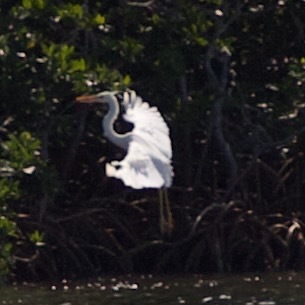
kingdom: Animalia
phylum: Chordata
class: Aves
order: Pelecaniformes
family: Ardeidae
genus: Ardea
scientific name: Ardea herodias
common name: Great blue heron
